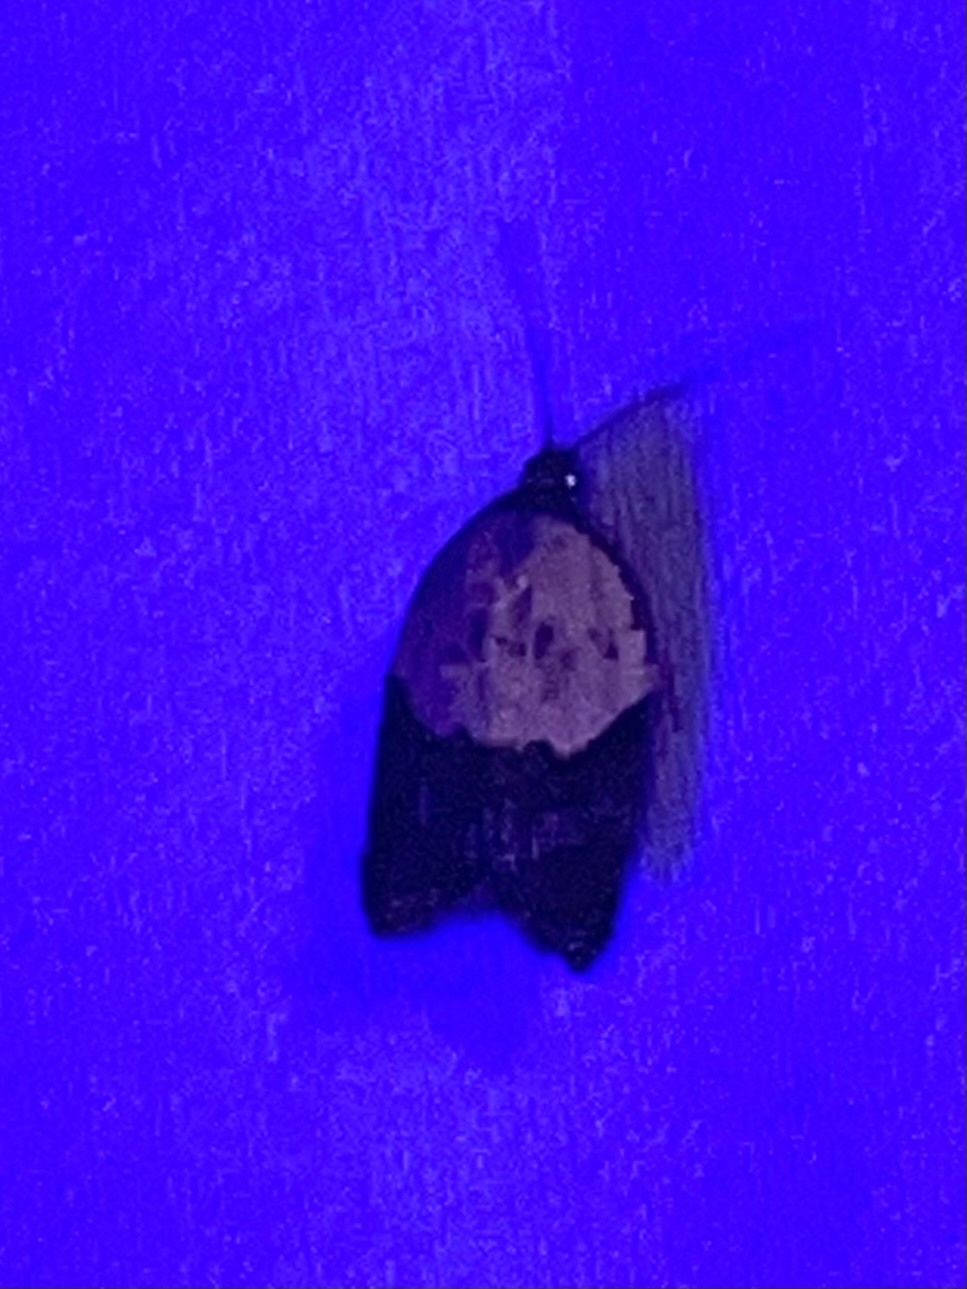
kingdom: Animalia
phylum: Arthropoda
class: Insecta
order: Lepidoptera
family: Tortricidae
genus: Acleris
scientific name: Acleris variegana
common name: Garden rose tortrix
